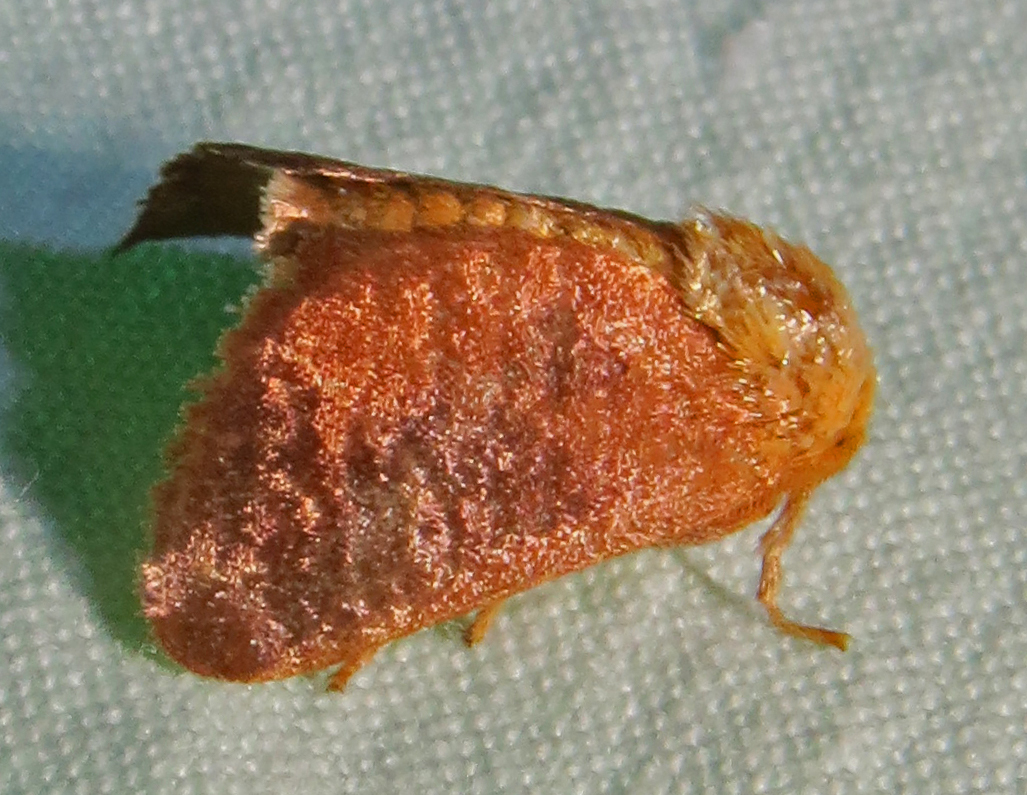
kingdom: Animalia
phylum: Arthropoda
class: Insecta
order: Lepidoptera
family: Limacodidae
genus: Isa
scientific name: Isa textula
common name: Crowned slug moth
